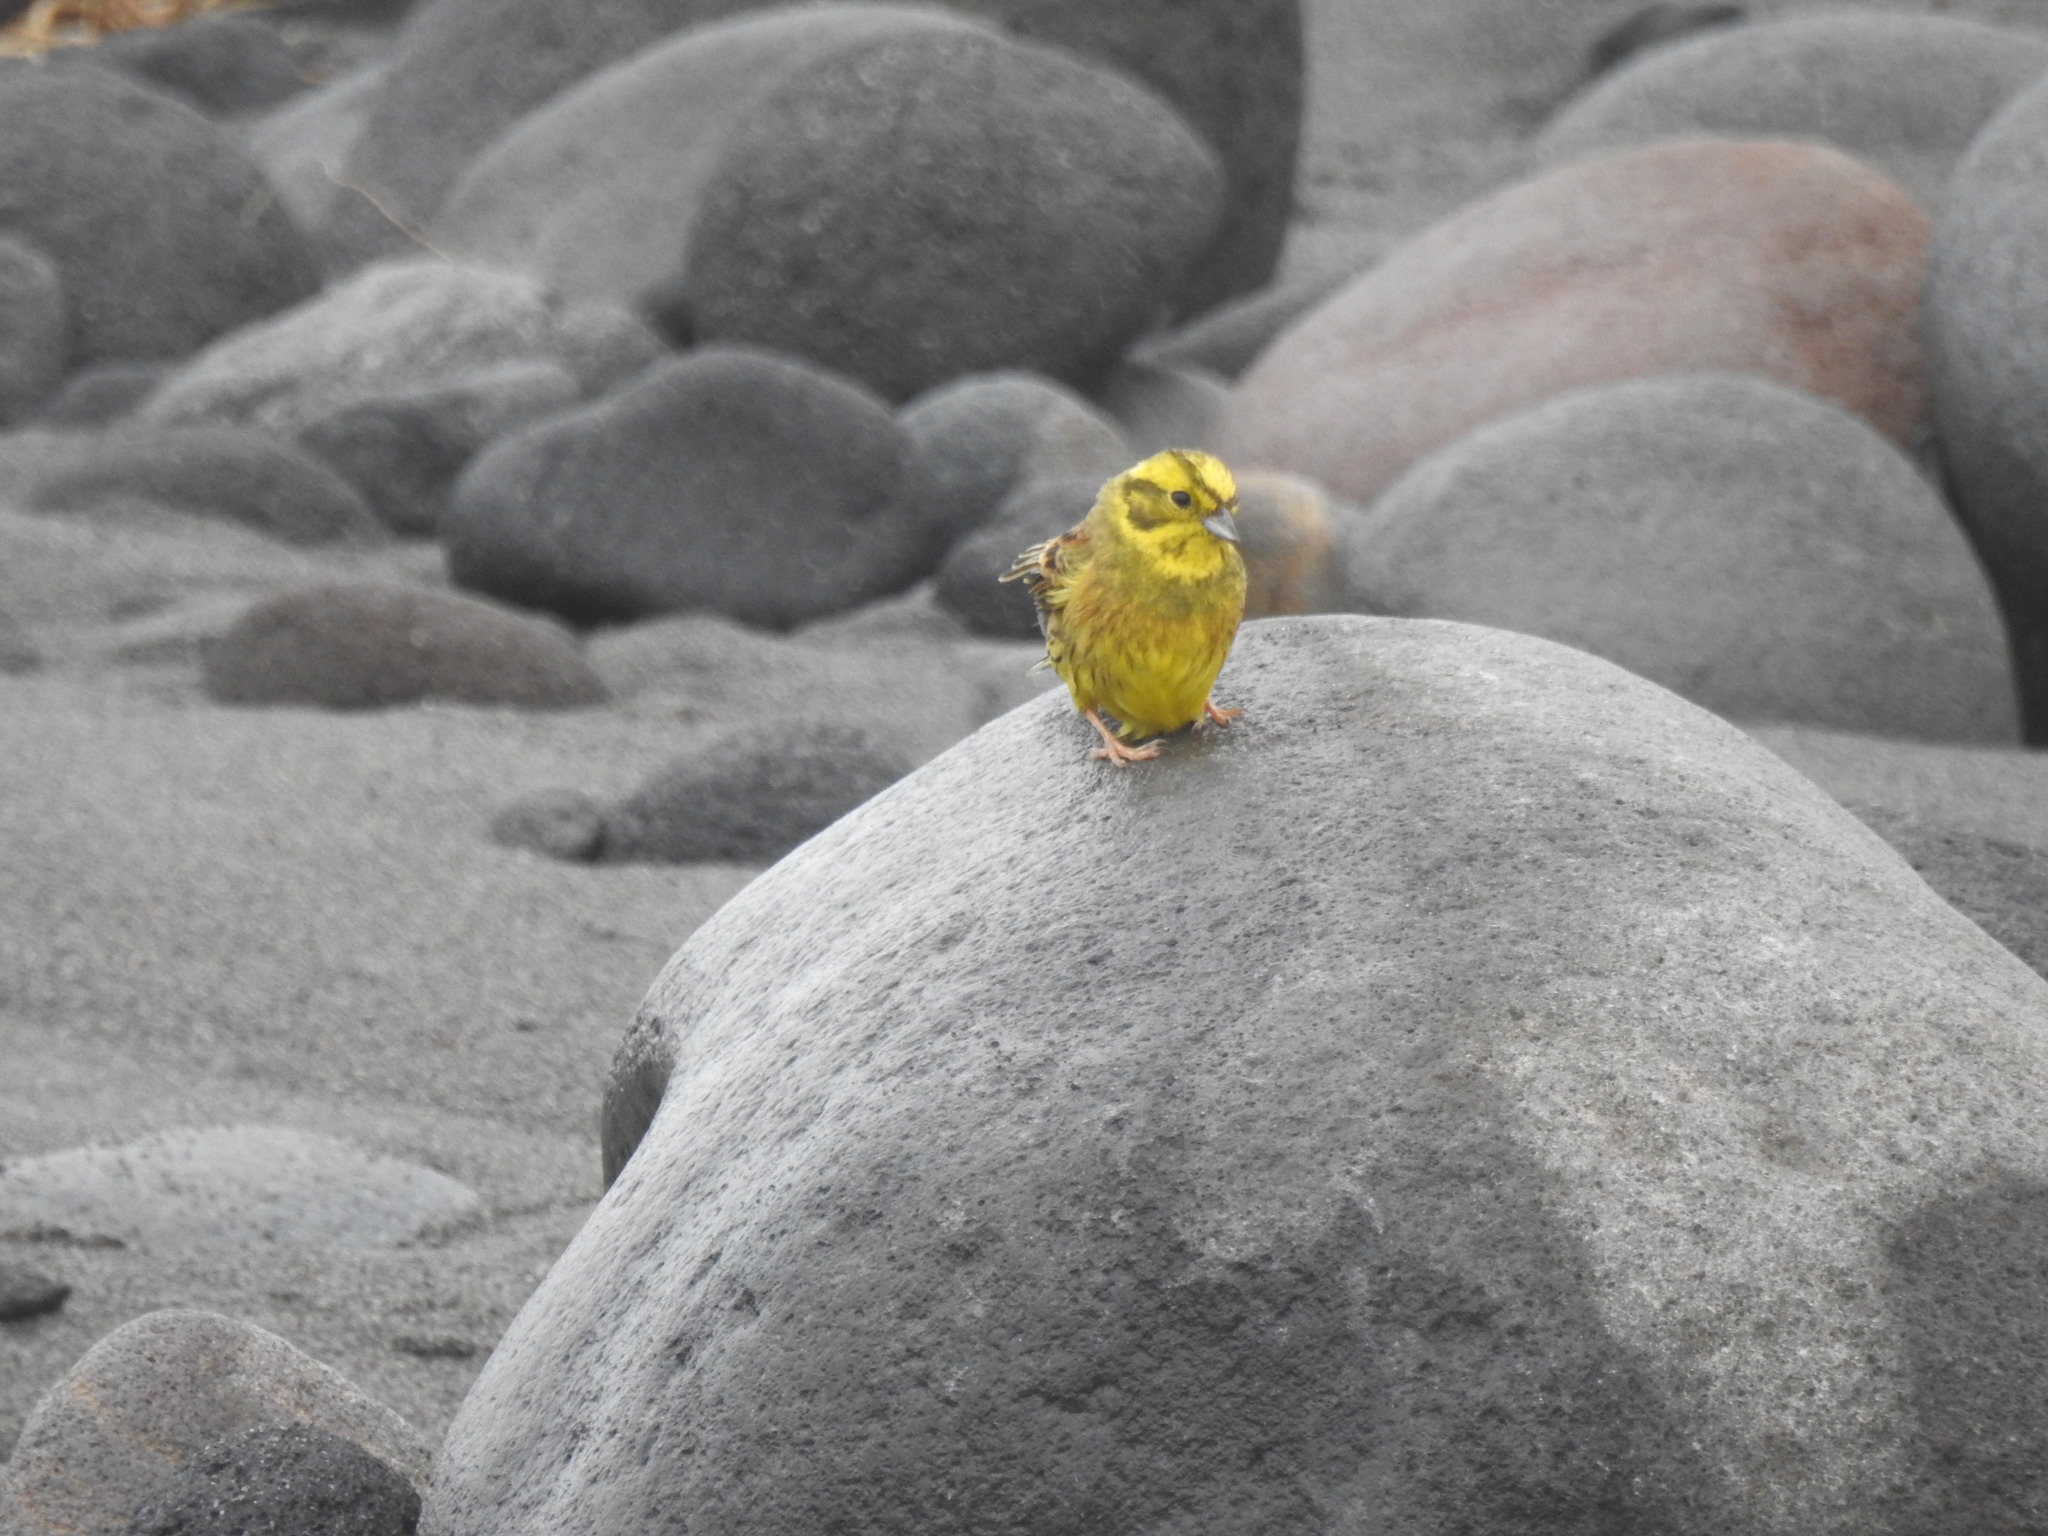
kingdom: Animalia
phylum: Chordata
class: Aves
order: Passeriformes
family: Emberizidae
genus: Emberiza
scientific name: Emberiza citrinella
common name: Yellowhammer
